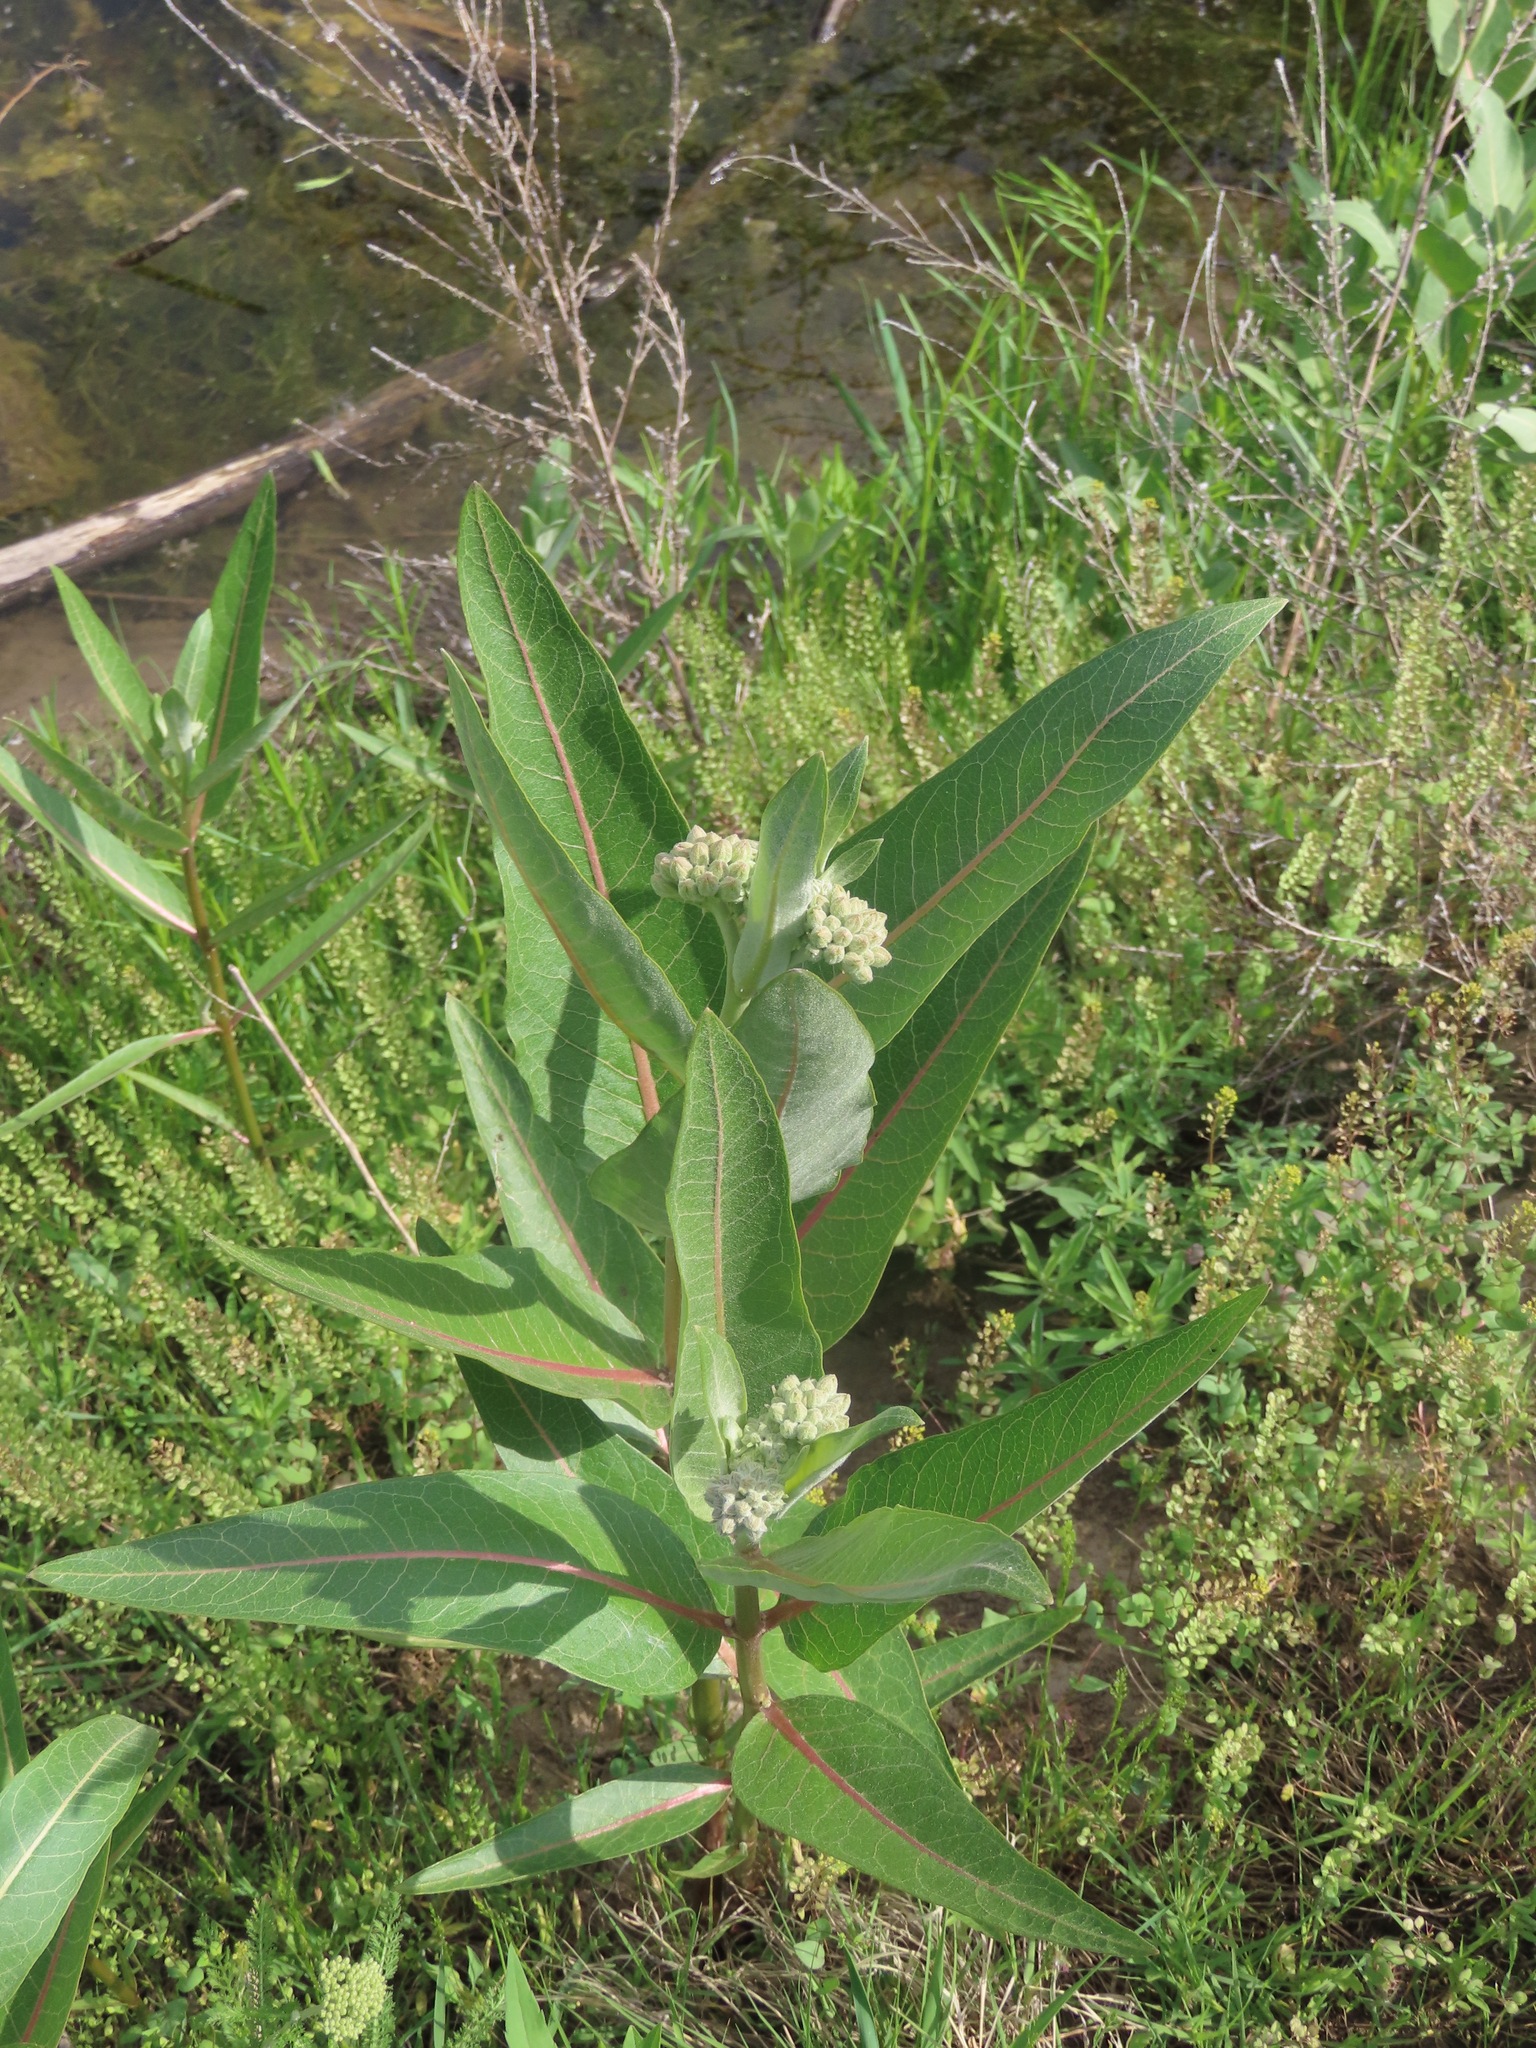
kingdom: Plantae
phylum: Tracheophyta
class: Magnoliopsida
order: Gentianales
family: Apocynaceae
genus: Asclepias
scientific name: Asclepias speciosa
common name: Showy milkweed
